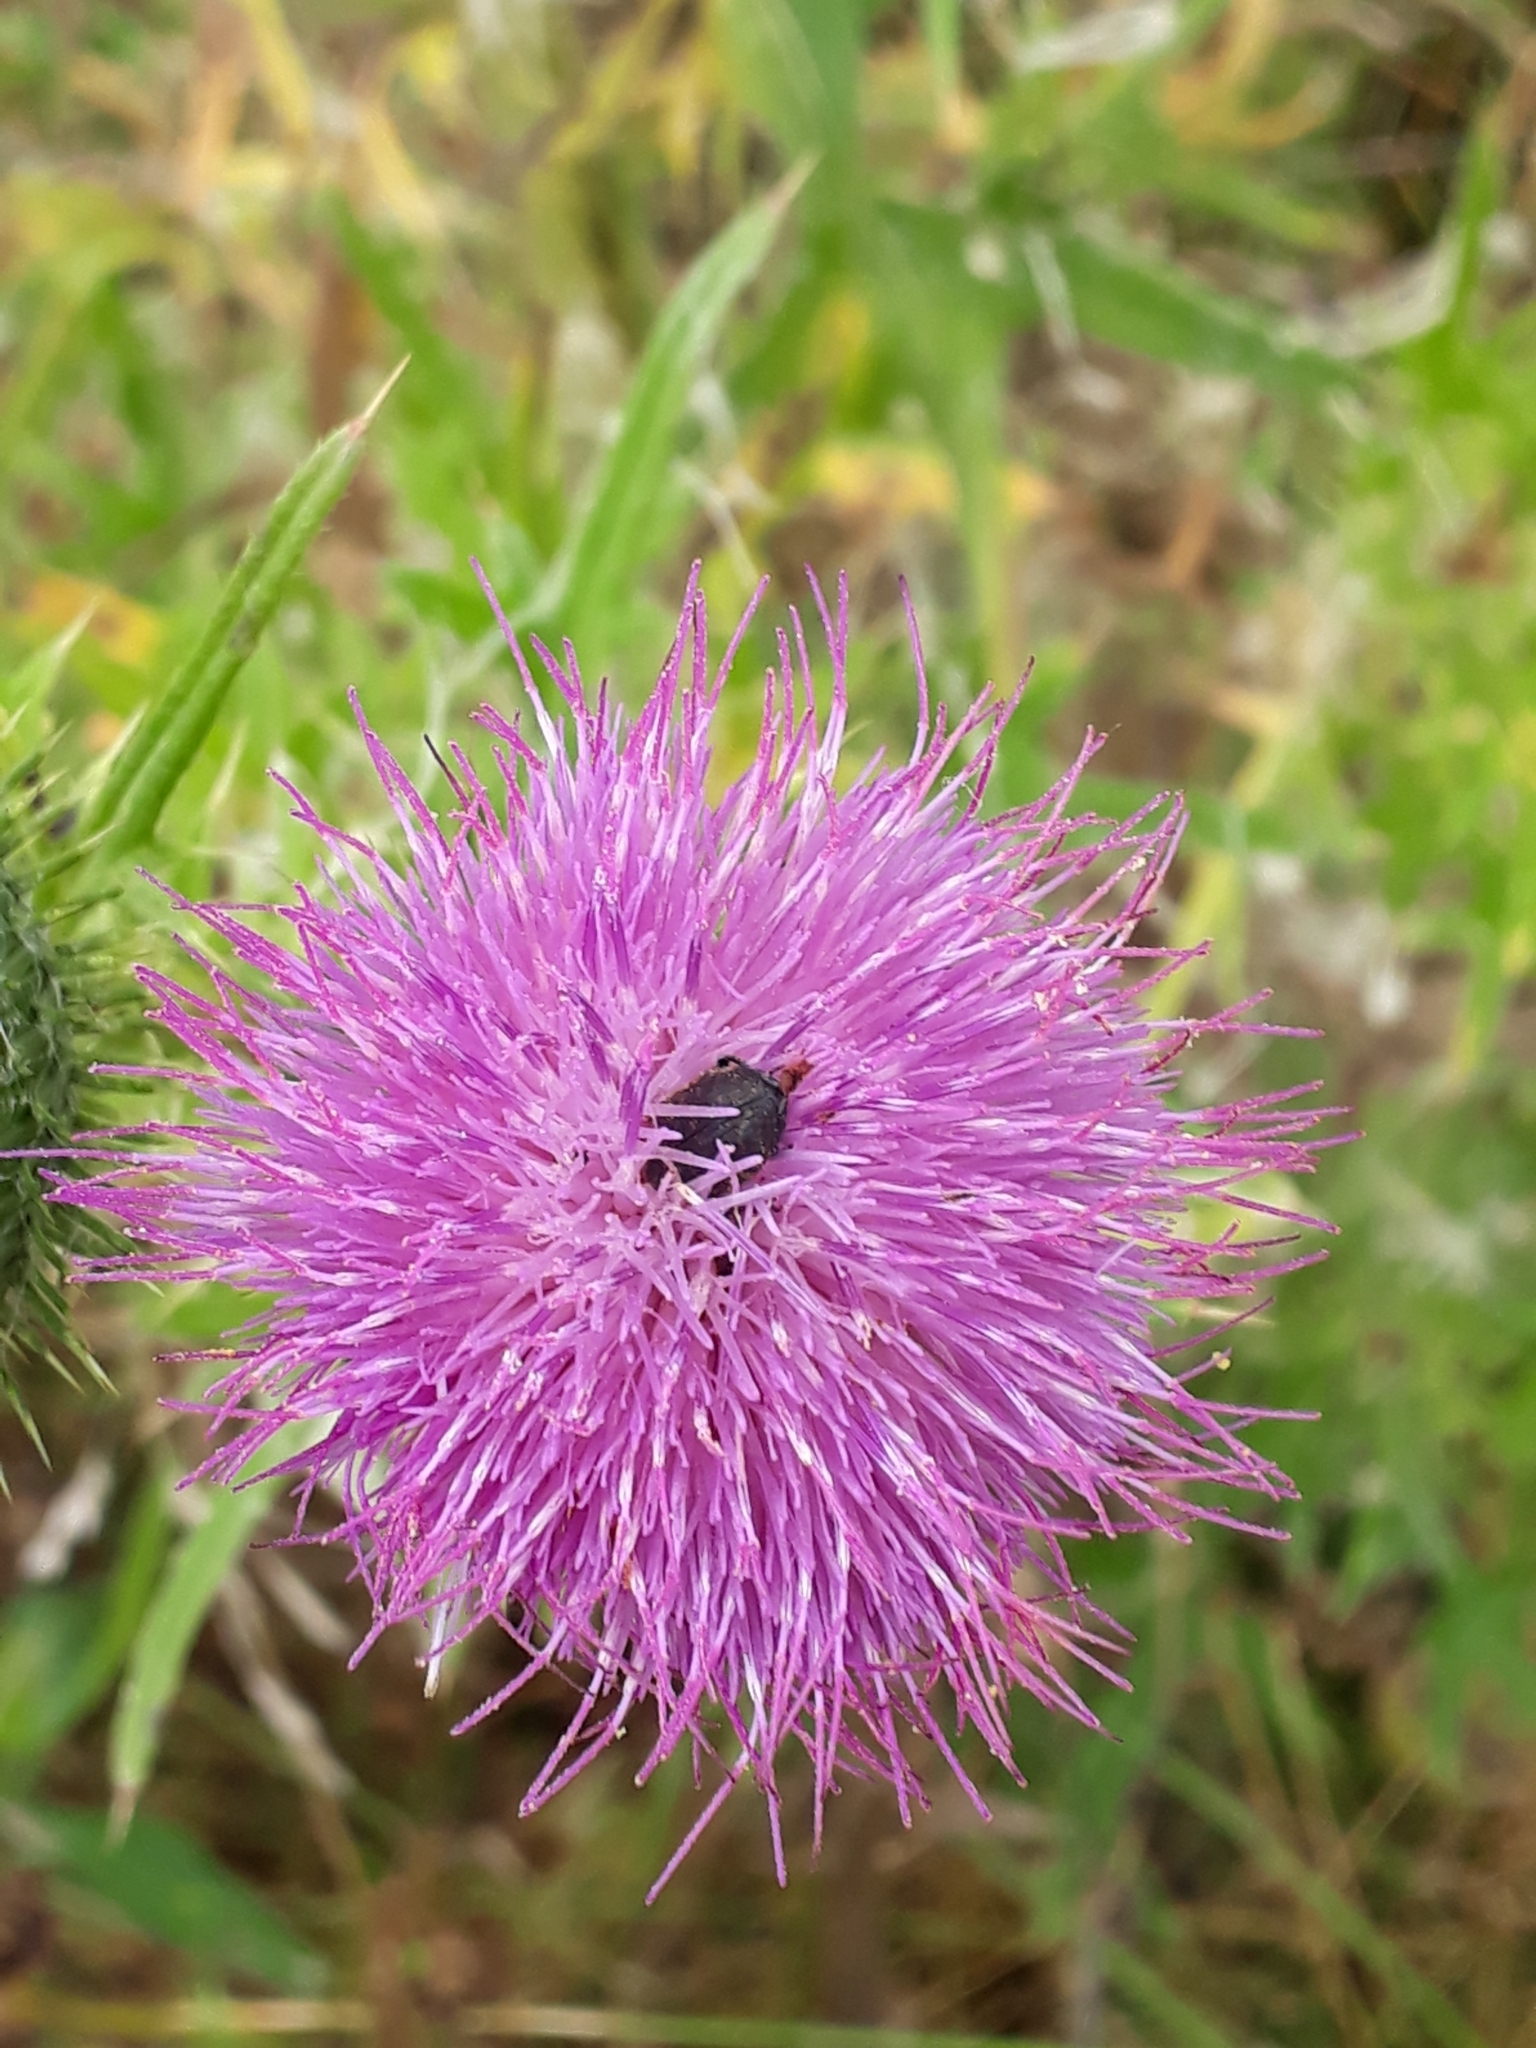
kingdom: Plantae
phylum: Tracheophyta
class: Magnoliopsida
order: Asterales
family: Asteraceae
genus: Cirsium
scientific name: Cirsium vulgare
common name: Bull thistle
